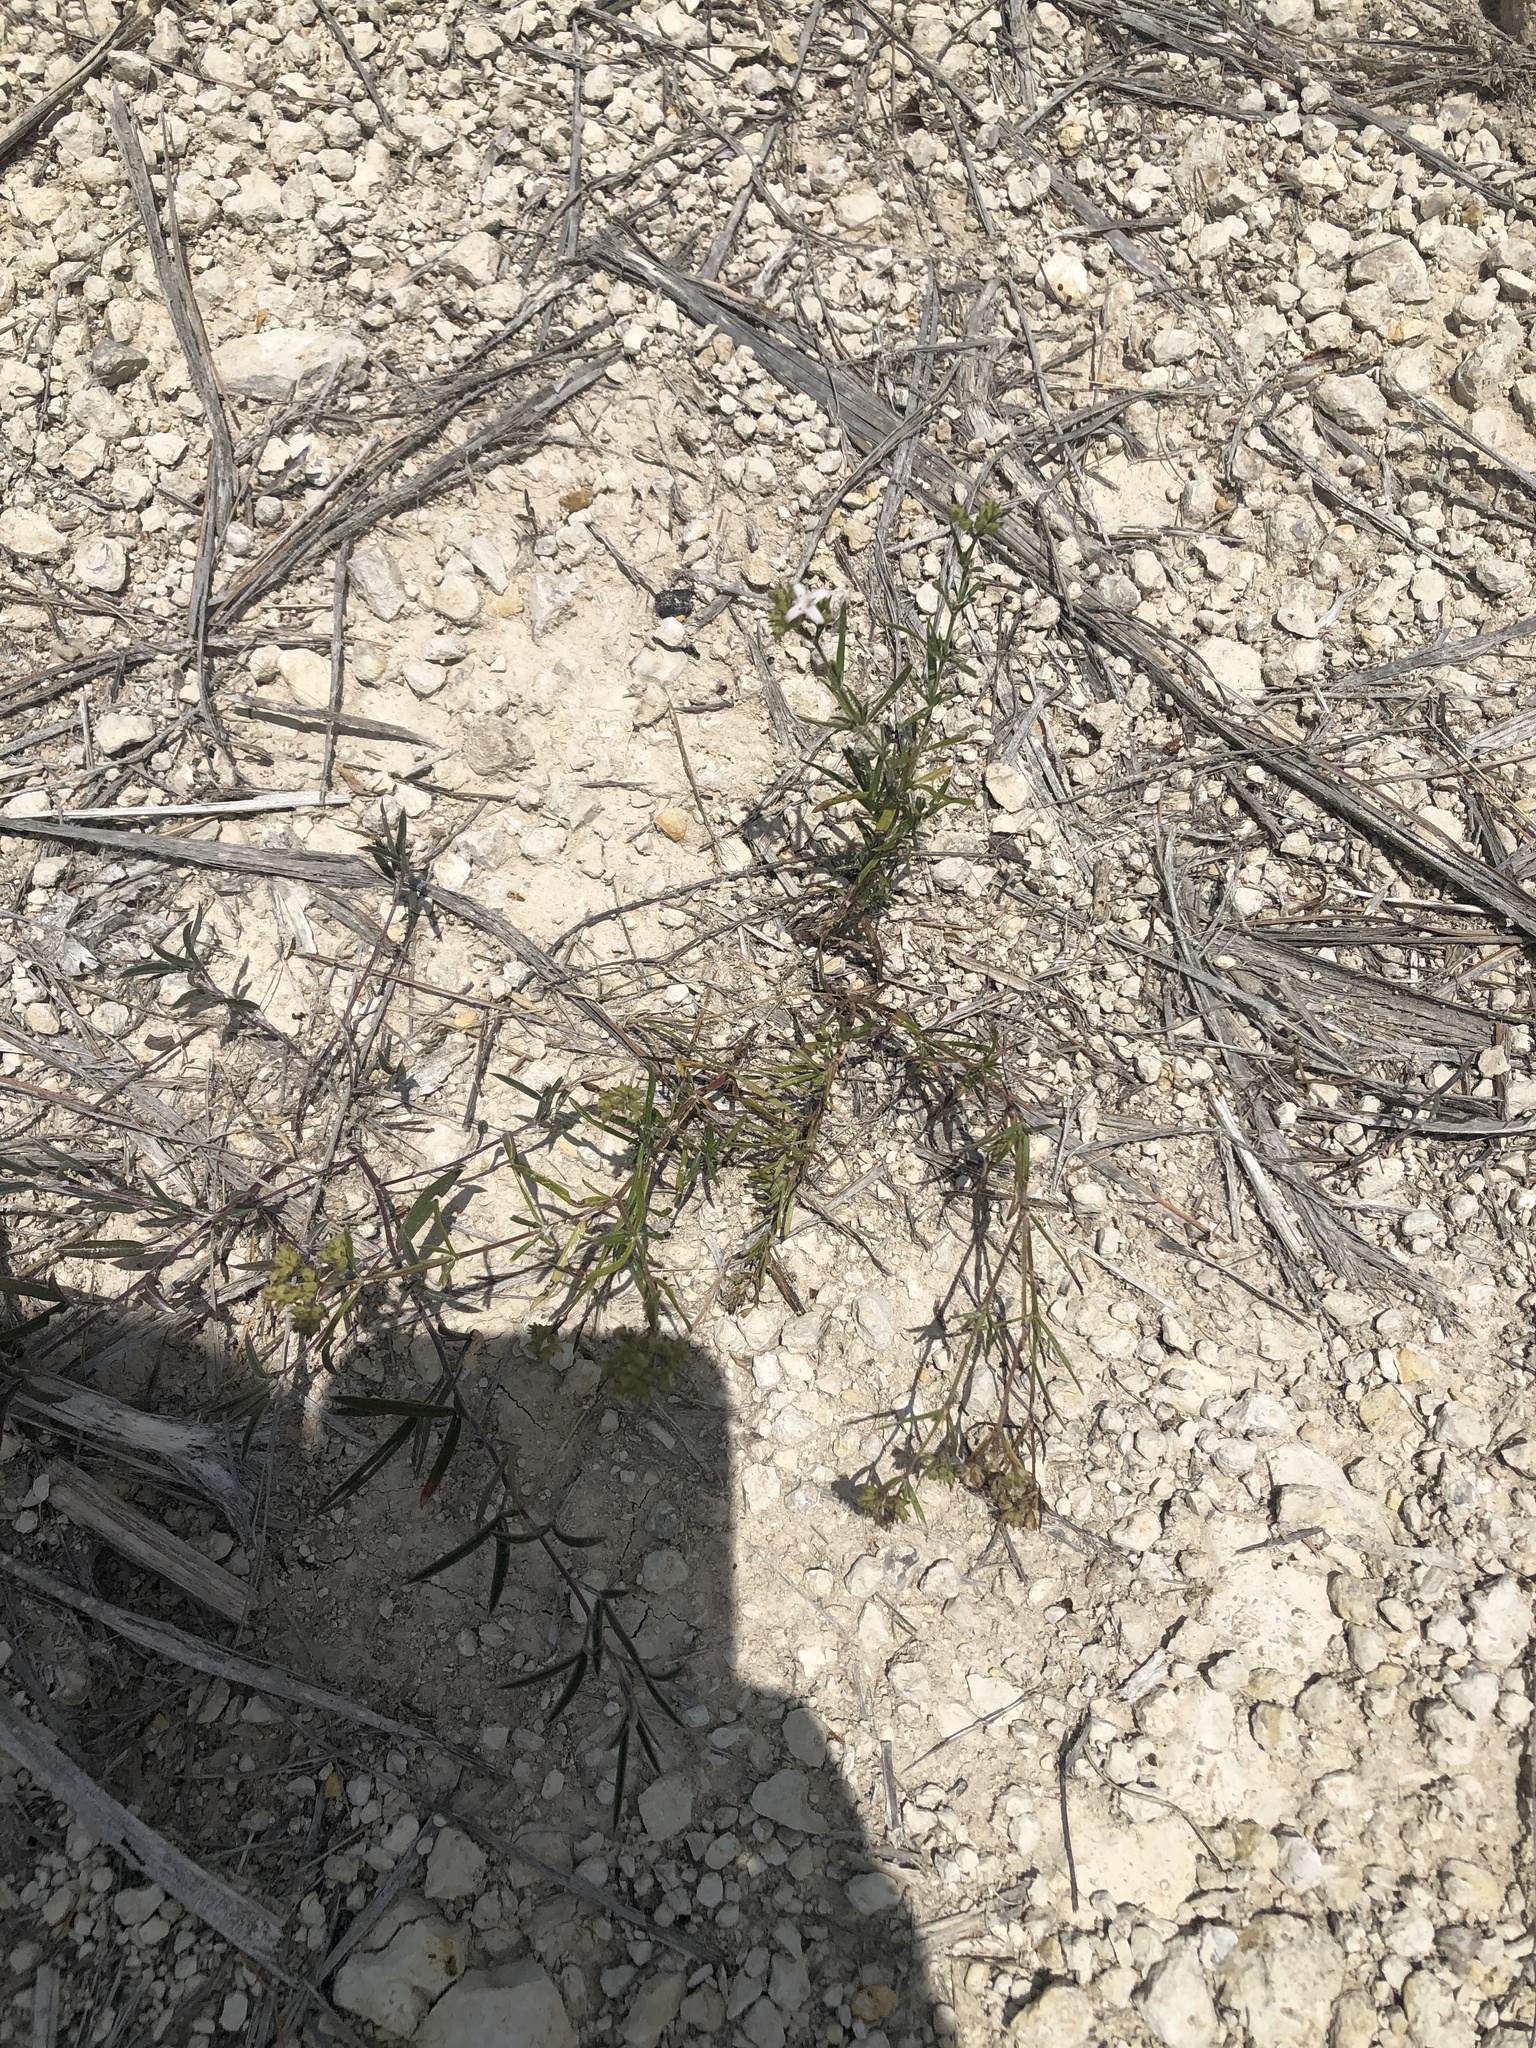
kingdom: Plantae
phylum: Tracheophyta
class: Magnoliopsida
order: Gentianales
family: Rubiaceae
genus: Stenaria
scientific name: Stenaria nigricans
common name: Diamondflowers
